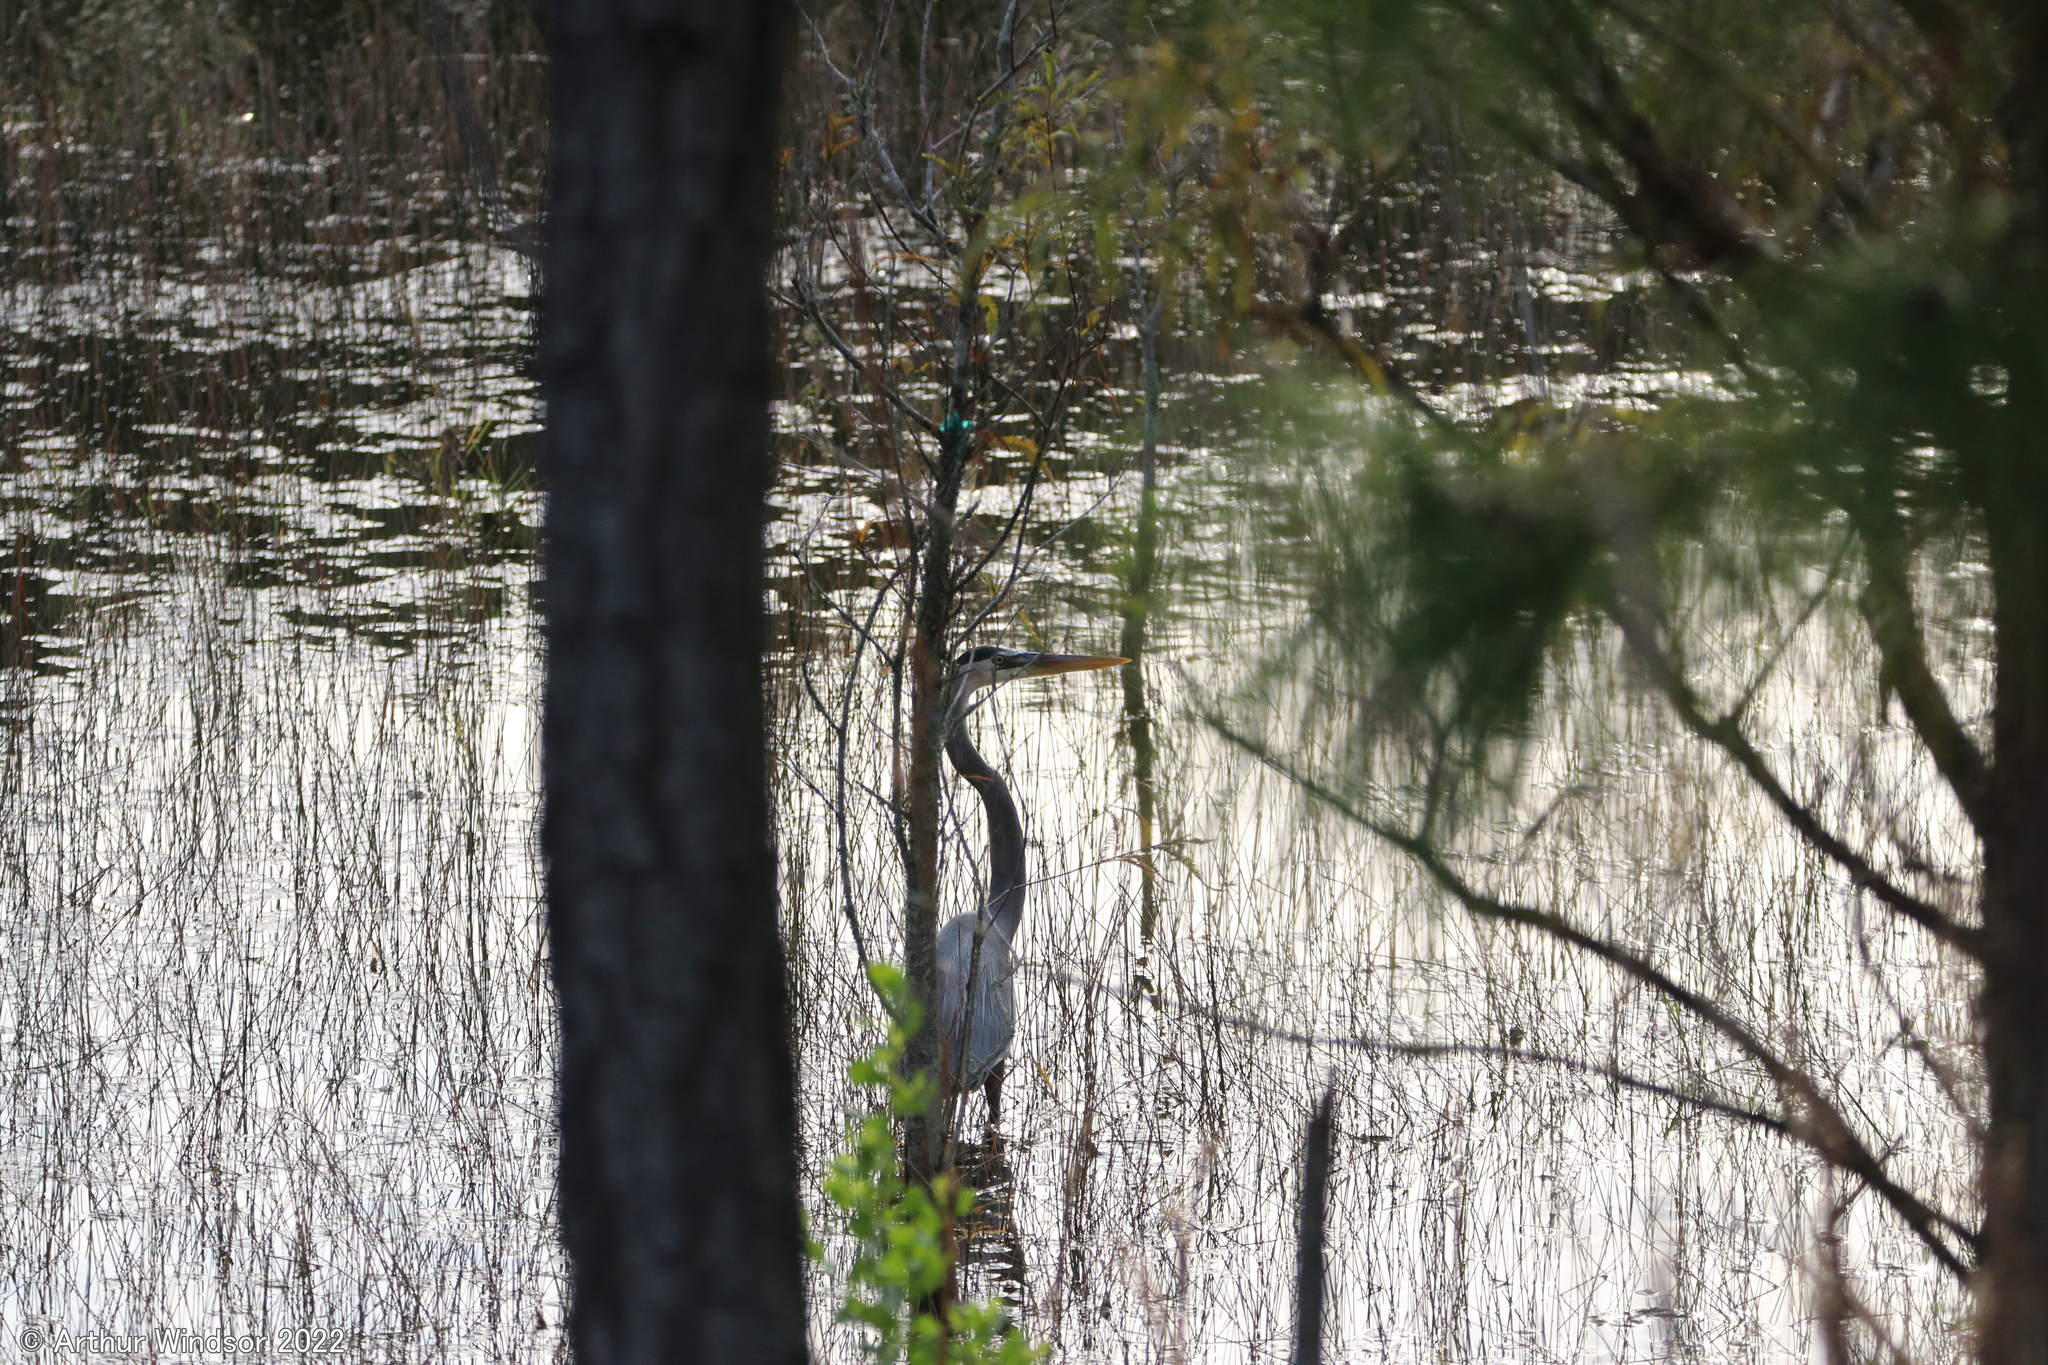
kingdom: Animalia
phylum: Chordata
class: Aves
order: Pelecaniformes
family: Ardeidae
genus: Ardea
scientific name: Ardea herodias
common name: Great blue heron
